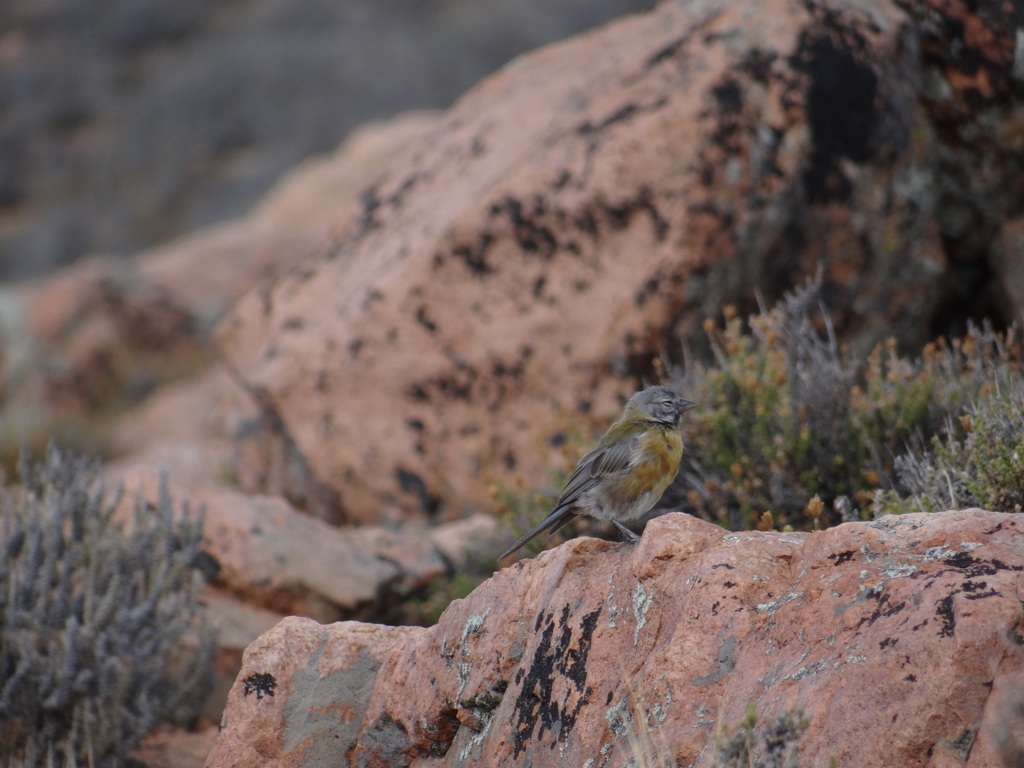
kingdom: Animalia
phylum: Chordata
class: Aves
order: Passeriformes
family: Thraupidae
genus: Phrygilus
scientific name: Phrygilus gayi
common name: Grey-hooded sierra finch
